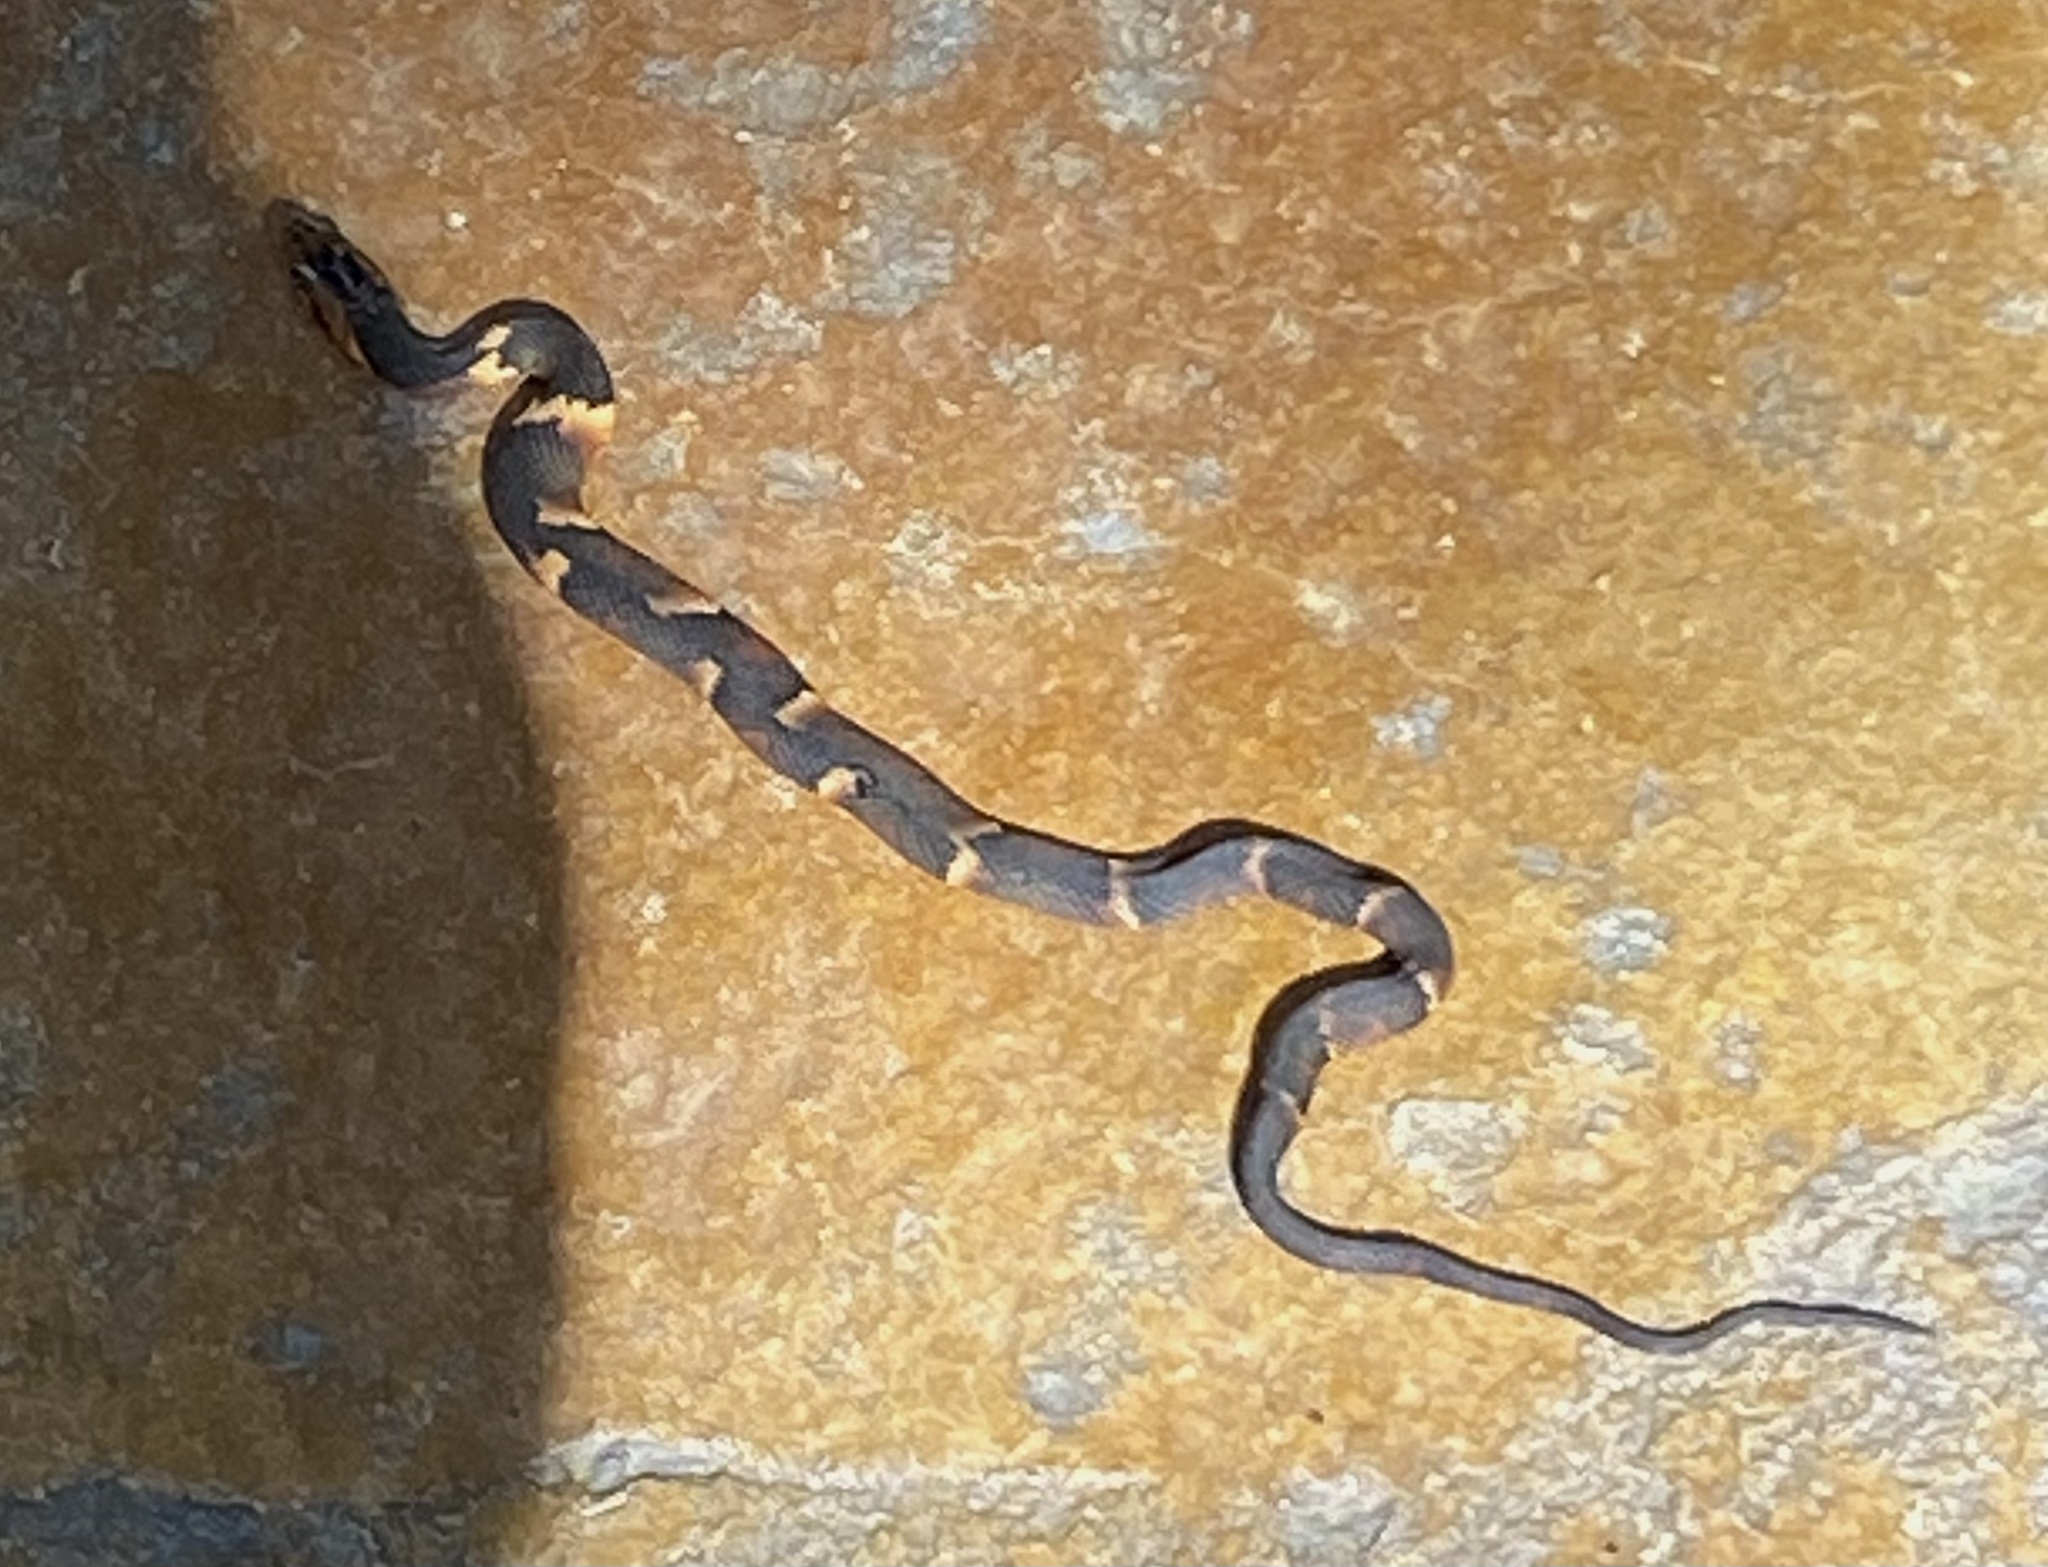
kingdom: Animalia
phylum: Chordata
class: Squamata
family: Colubridae
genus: Nerodia
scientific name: Nerodia fasciata
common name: Southern water snake
